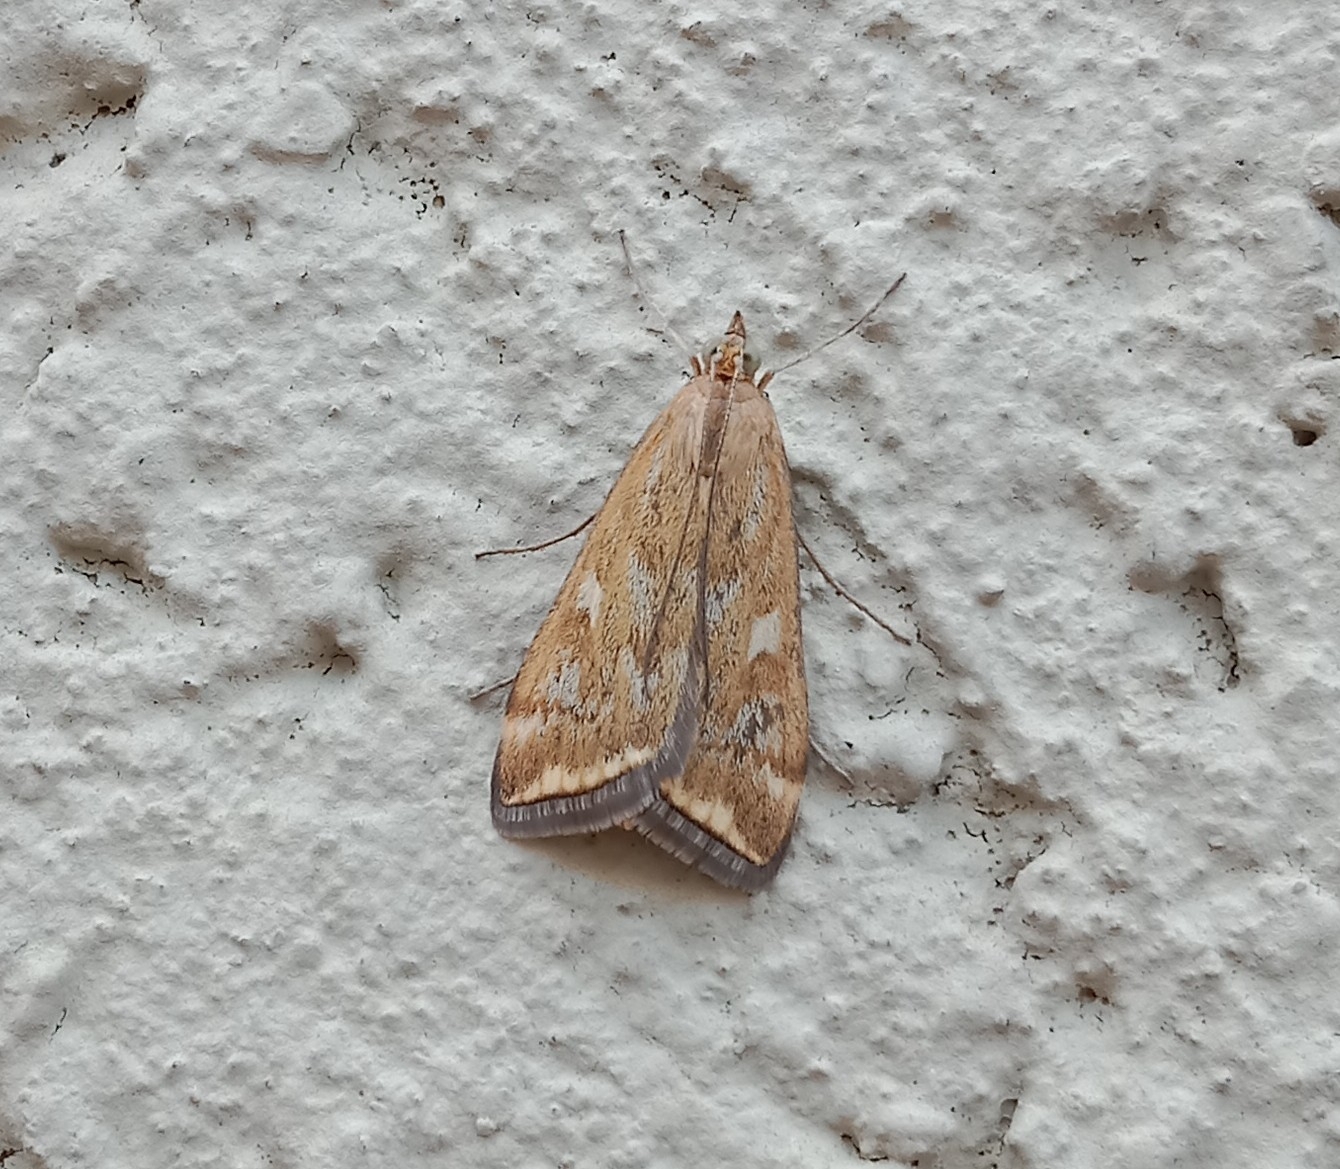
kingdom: Animalia
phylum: Arthropoda
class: Insecta
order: Lepidoptera
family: Crambidae
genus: Loxostege
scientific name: Loxostege sticticalis
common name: Crambid moth
